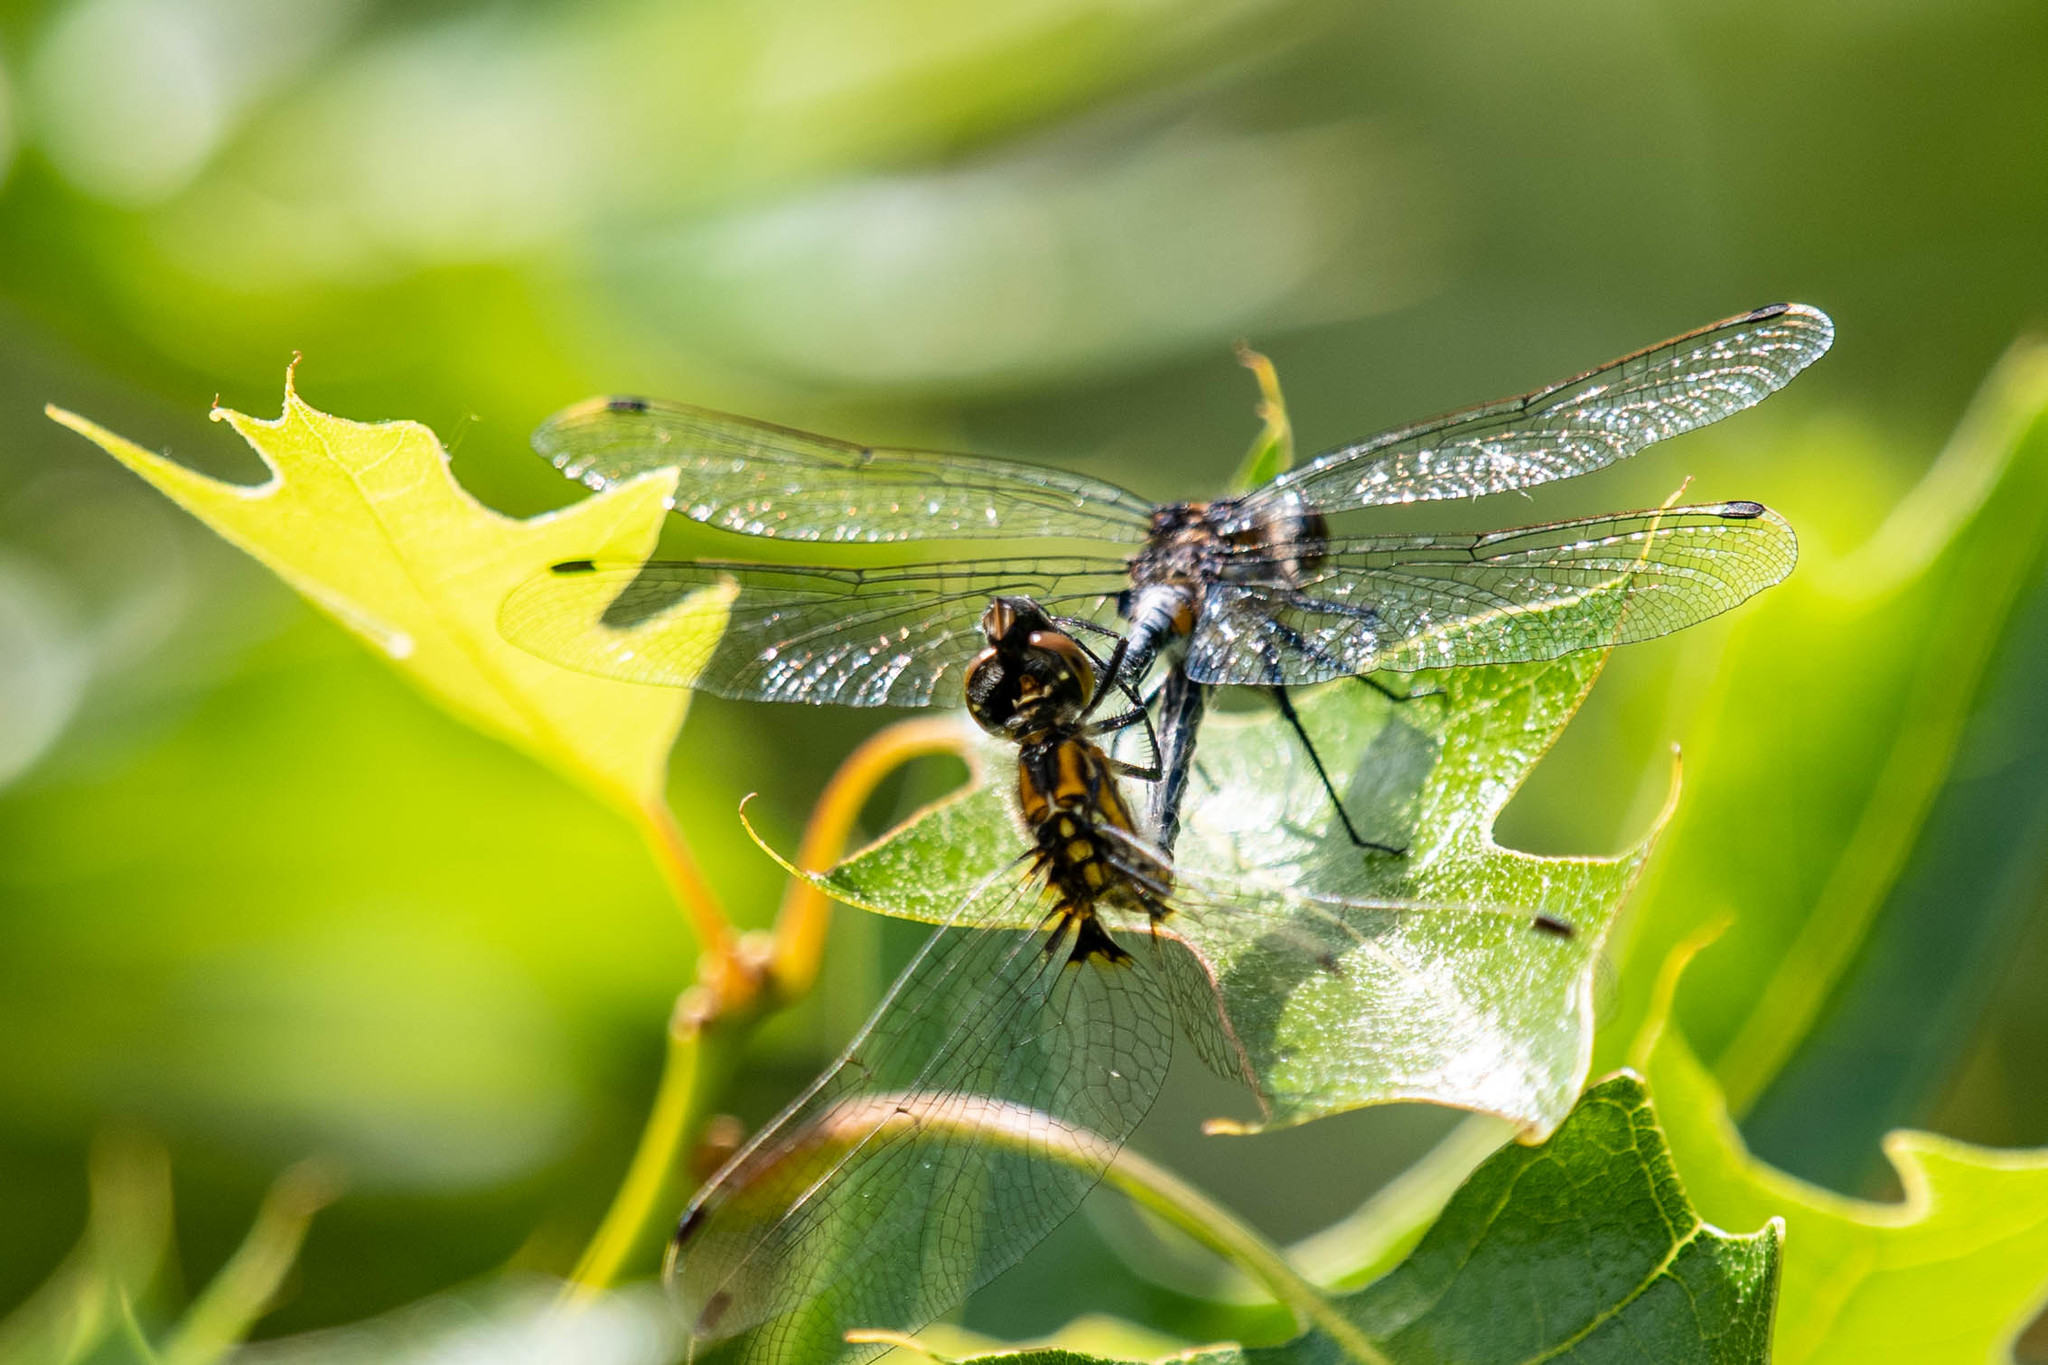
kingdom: Animalia
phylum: Arthropoda
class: Insecta
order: Odonata
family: Libellulidae
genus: Leucorrhinia
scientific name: Leucorrhinia proxima
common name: Belted whiteface
